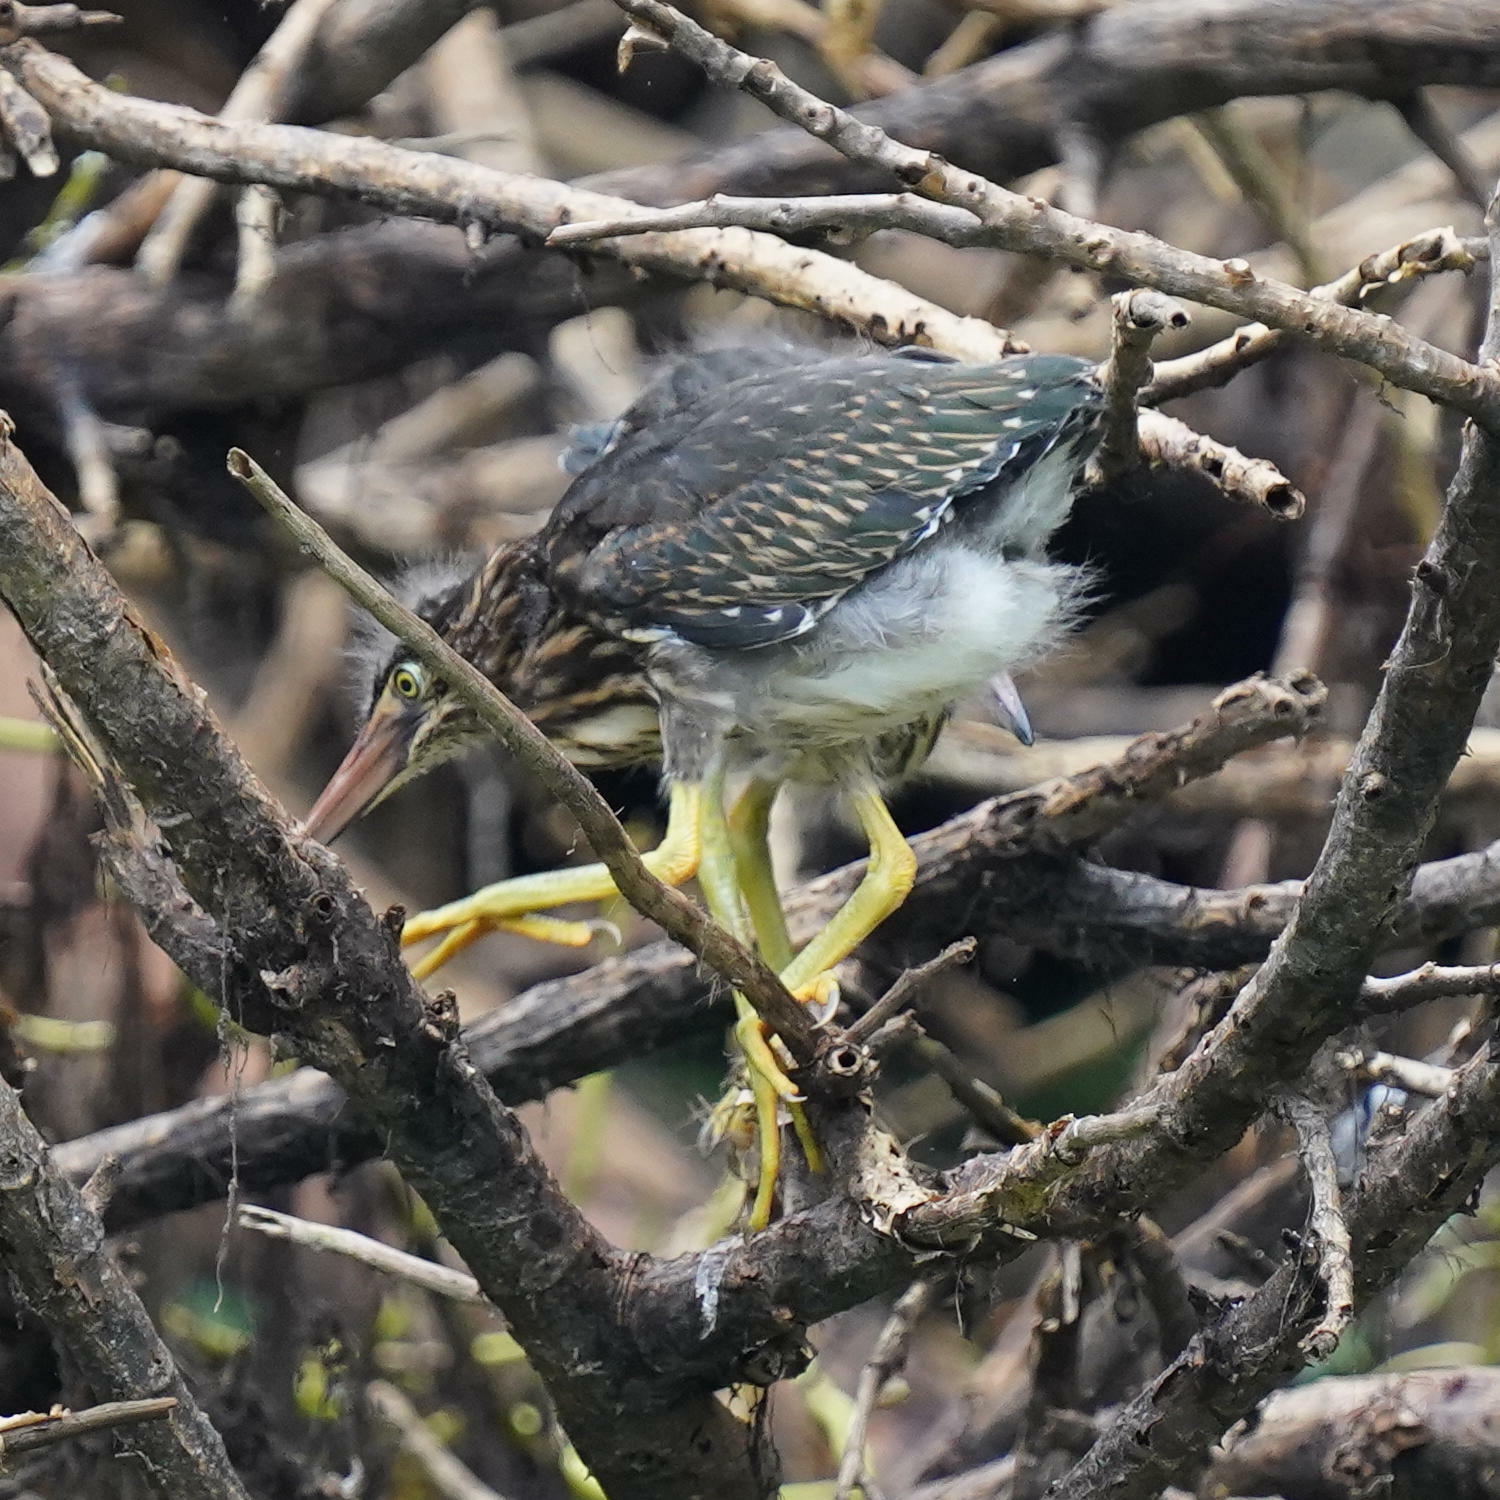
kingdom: Animalia
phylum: Chordata
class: Aves
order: Pelecaniformes
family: Ardeidae
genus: Butorides
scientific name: Butorides virescens
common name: Green heron
